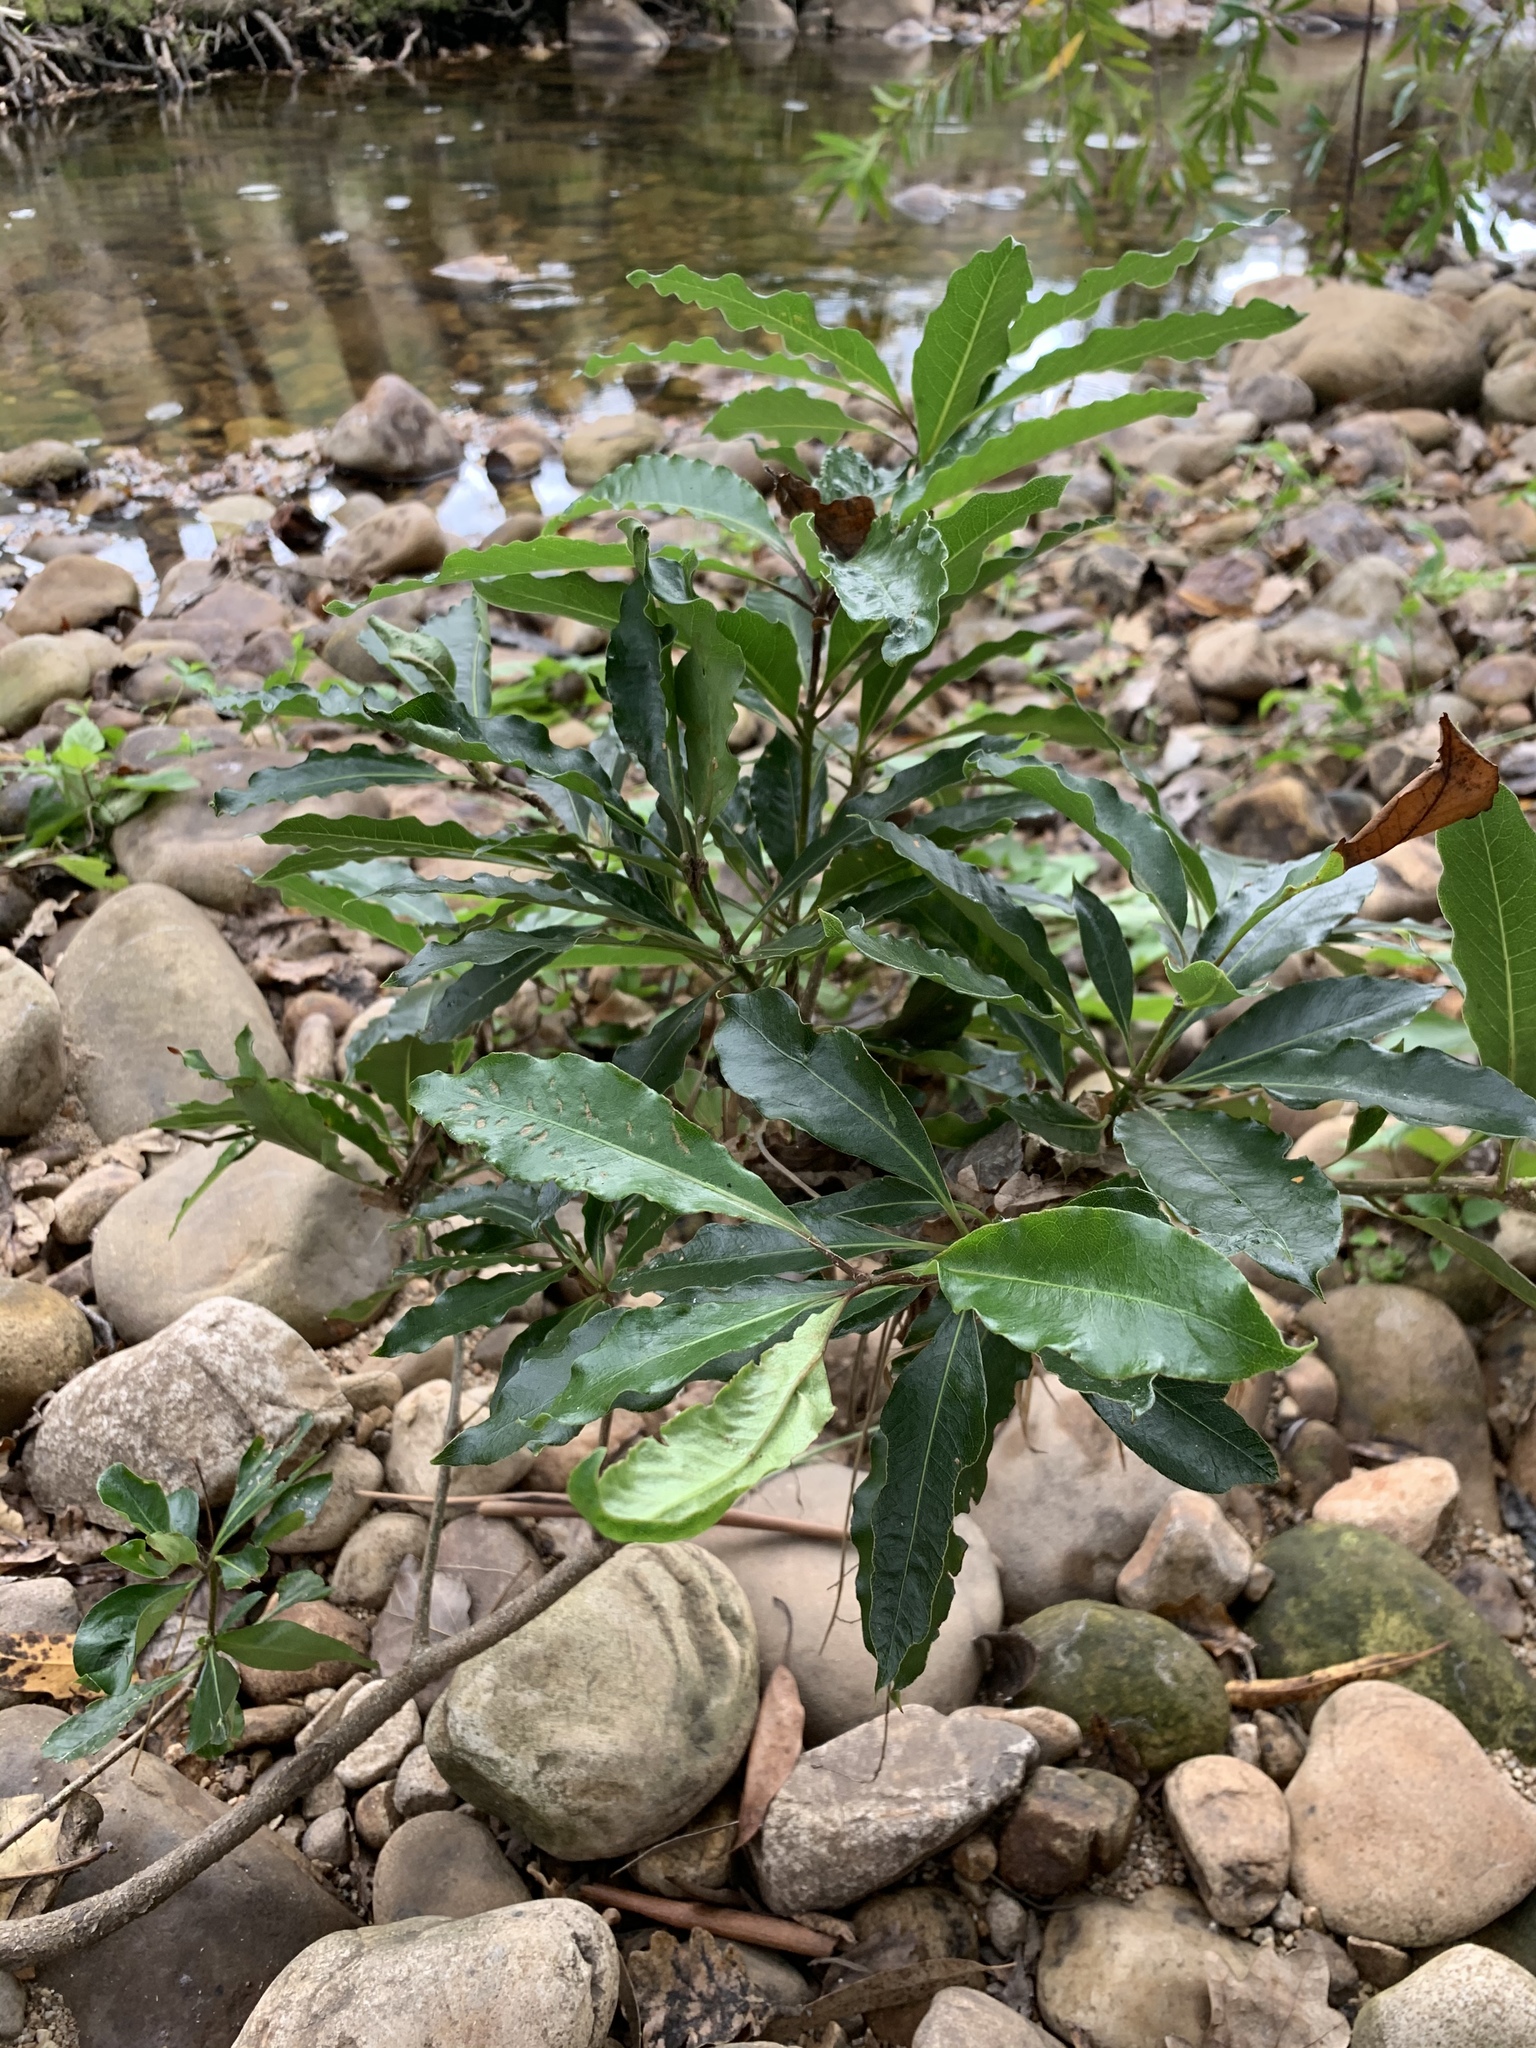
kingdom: Plantae
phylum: Tracheophyta
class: Magnoliopsida
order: Apiales
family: Pittosporaceae
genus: Pittosporum
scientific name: Pittosporum undulatum
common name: Australian cheesewood
